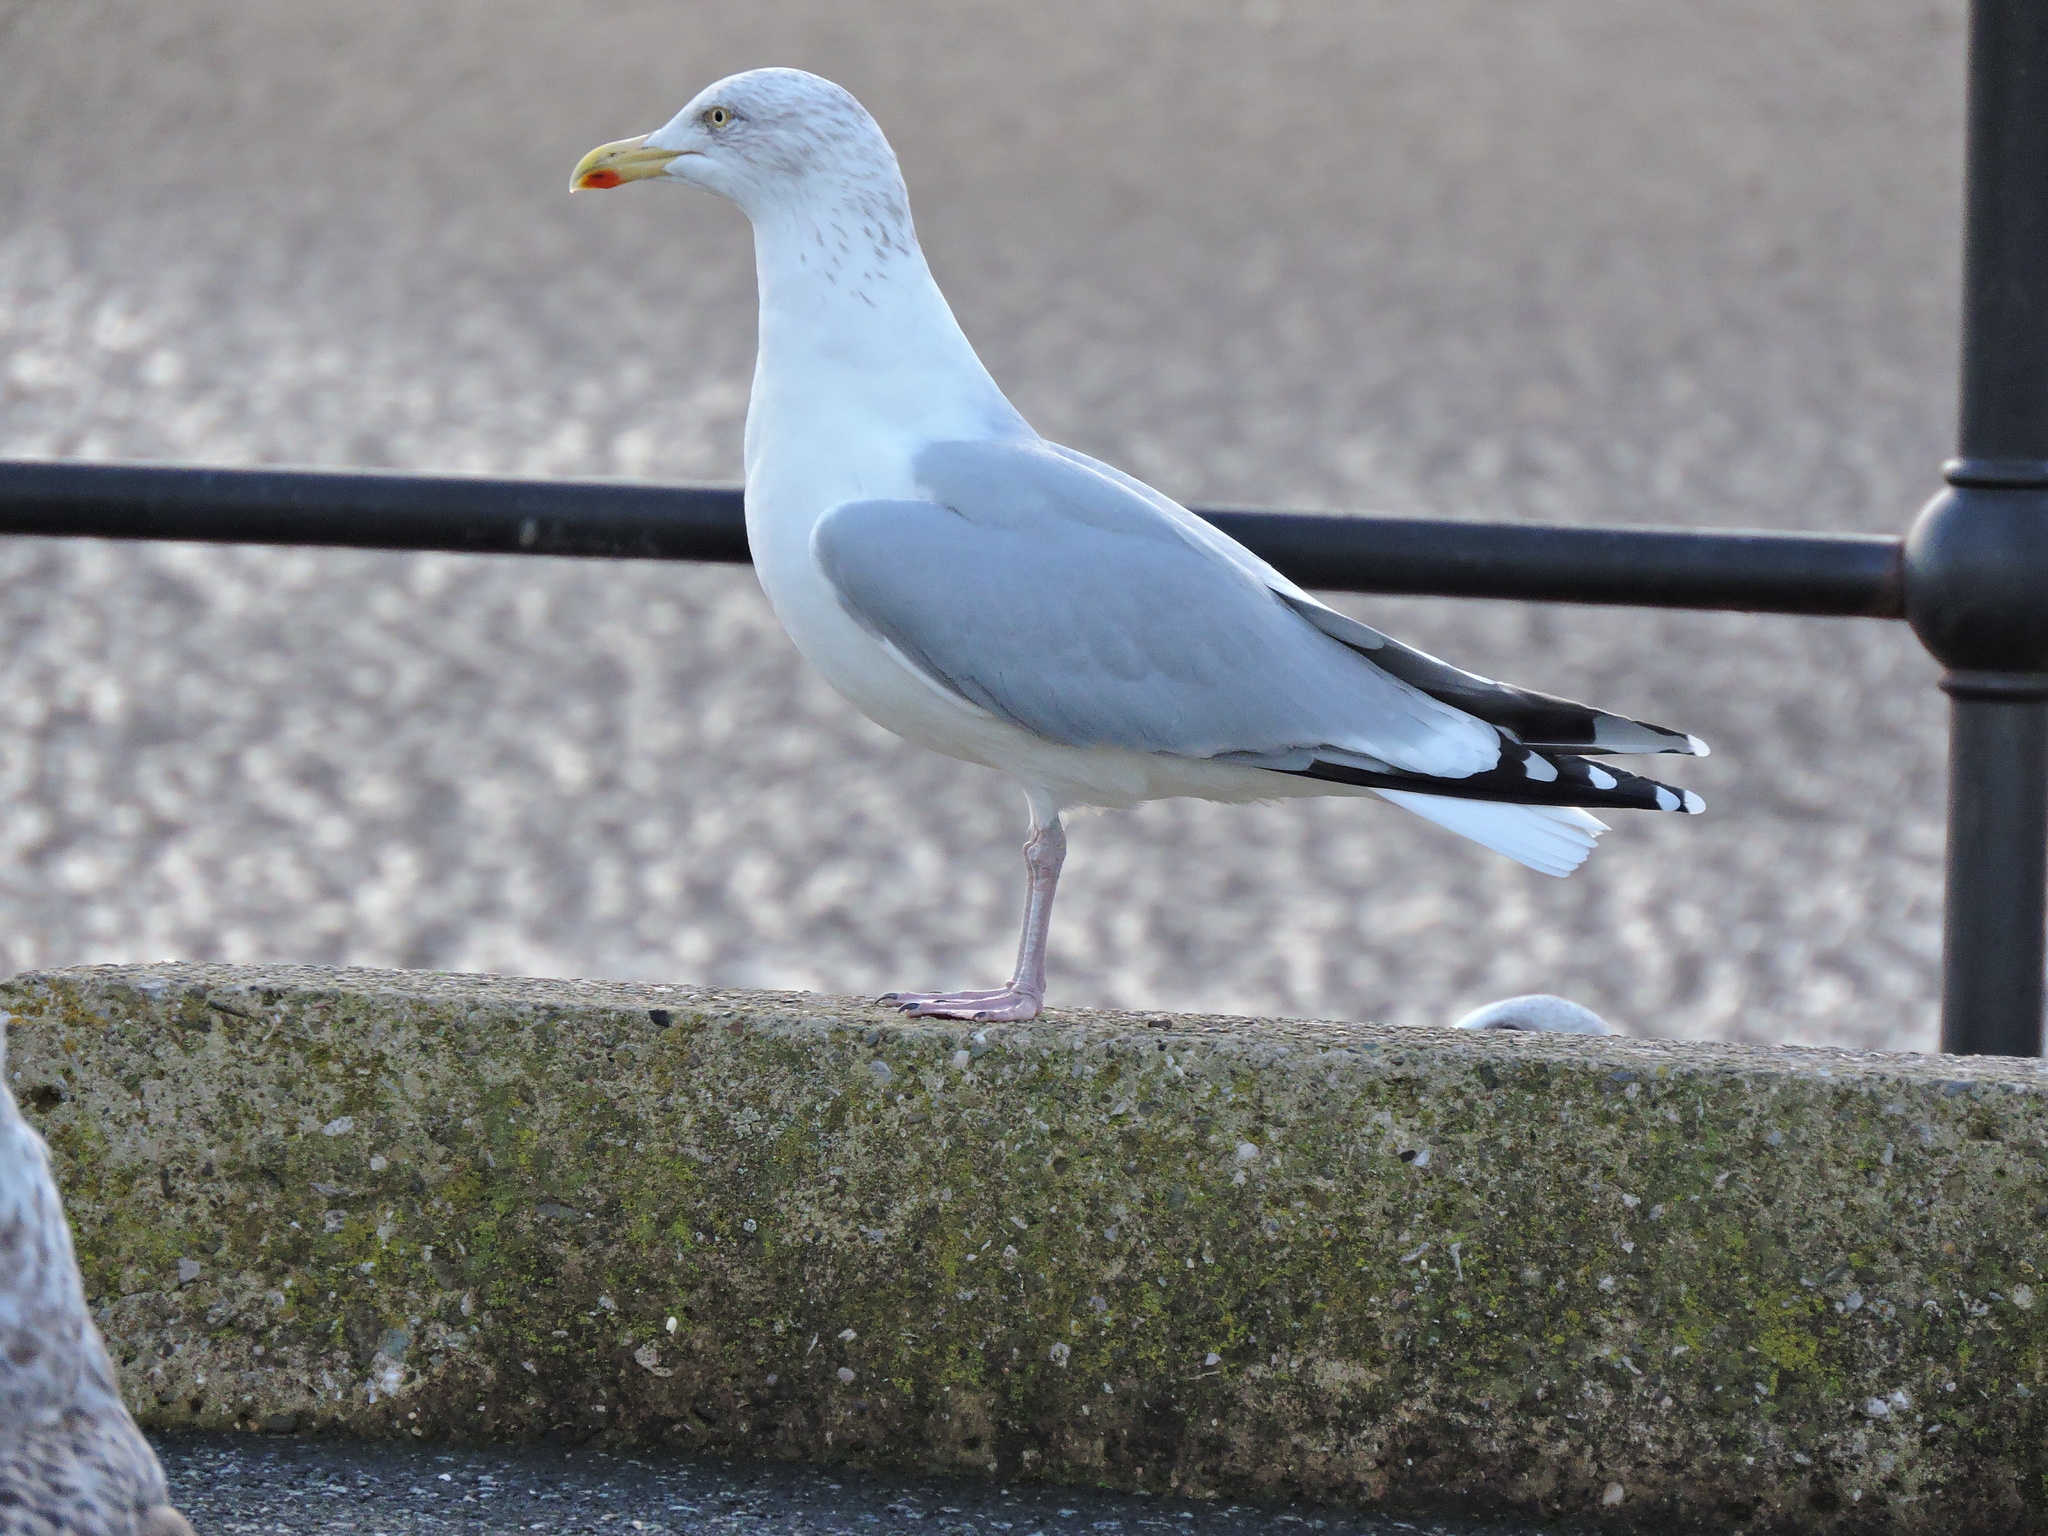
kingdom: Animalia
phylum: Chordata
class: Aves
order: Charadriiformes
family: Laridae
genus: Larus
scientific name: Larus argentatus
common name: Herring gull
